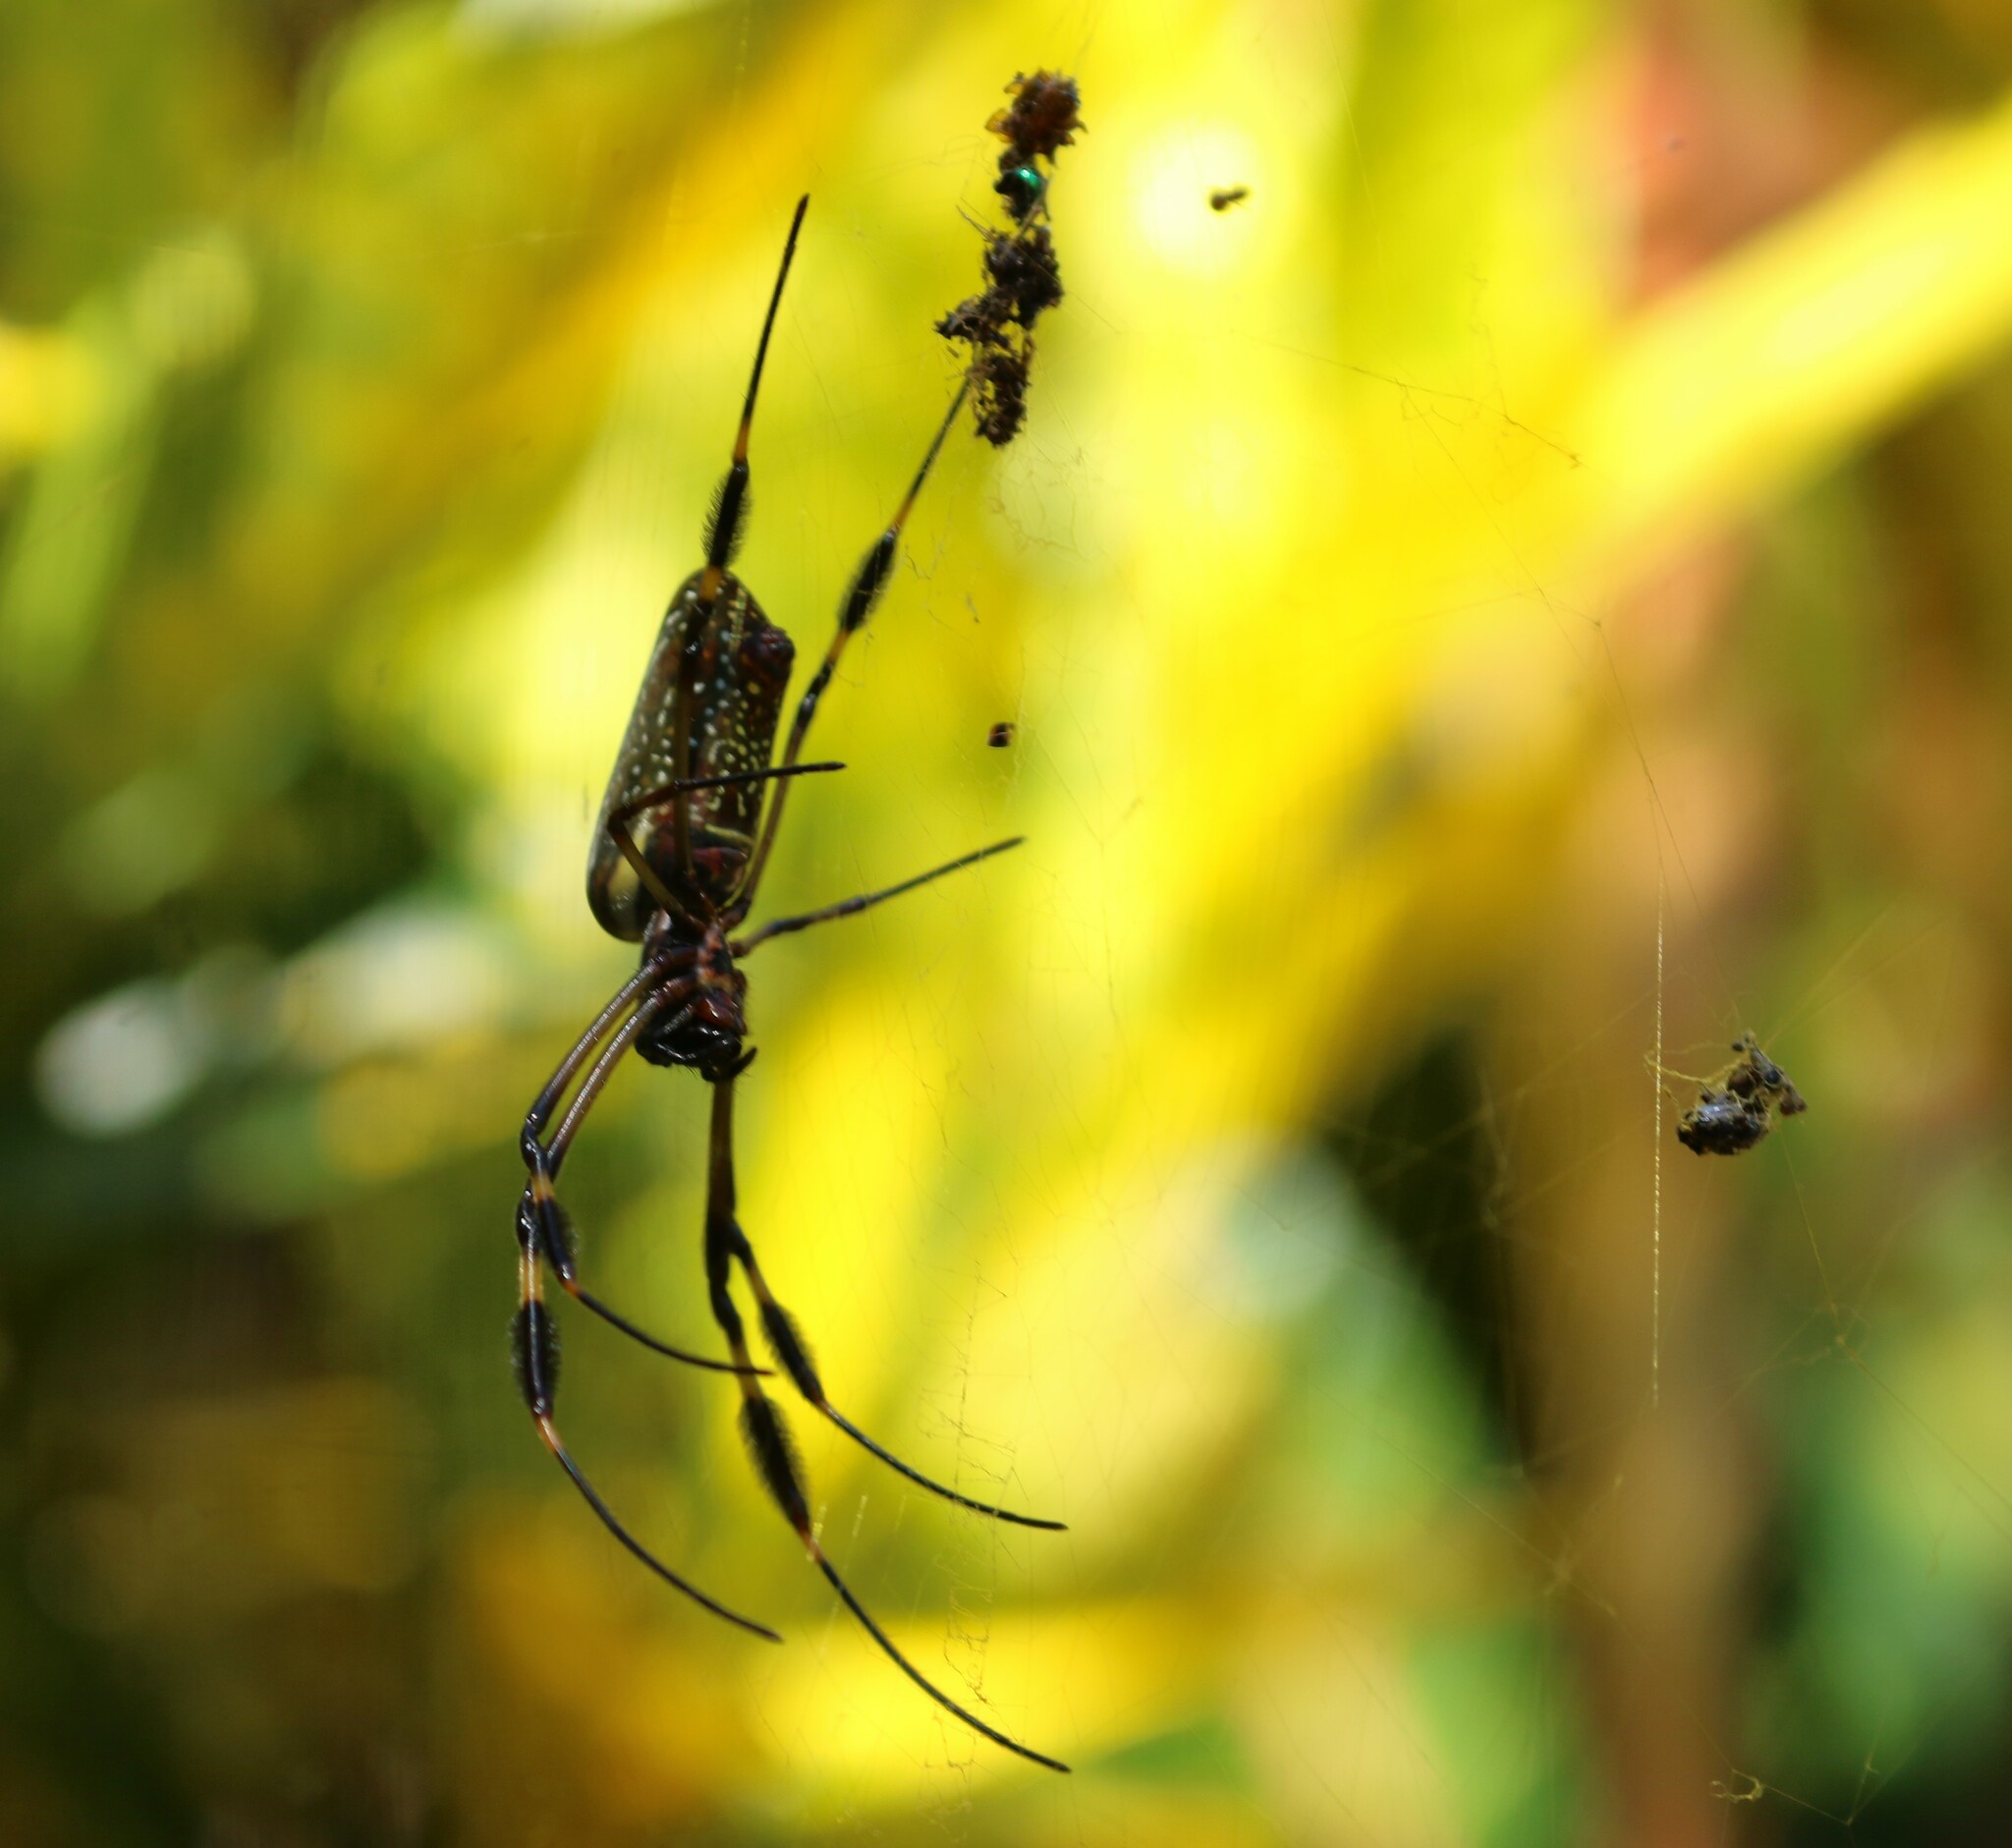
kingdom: Animalia
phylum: Arthropoda
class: Arachnida
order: Araneae
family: Araneidae
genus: Trichonephila
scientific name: Trichonephila clavipes
